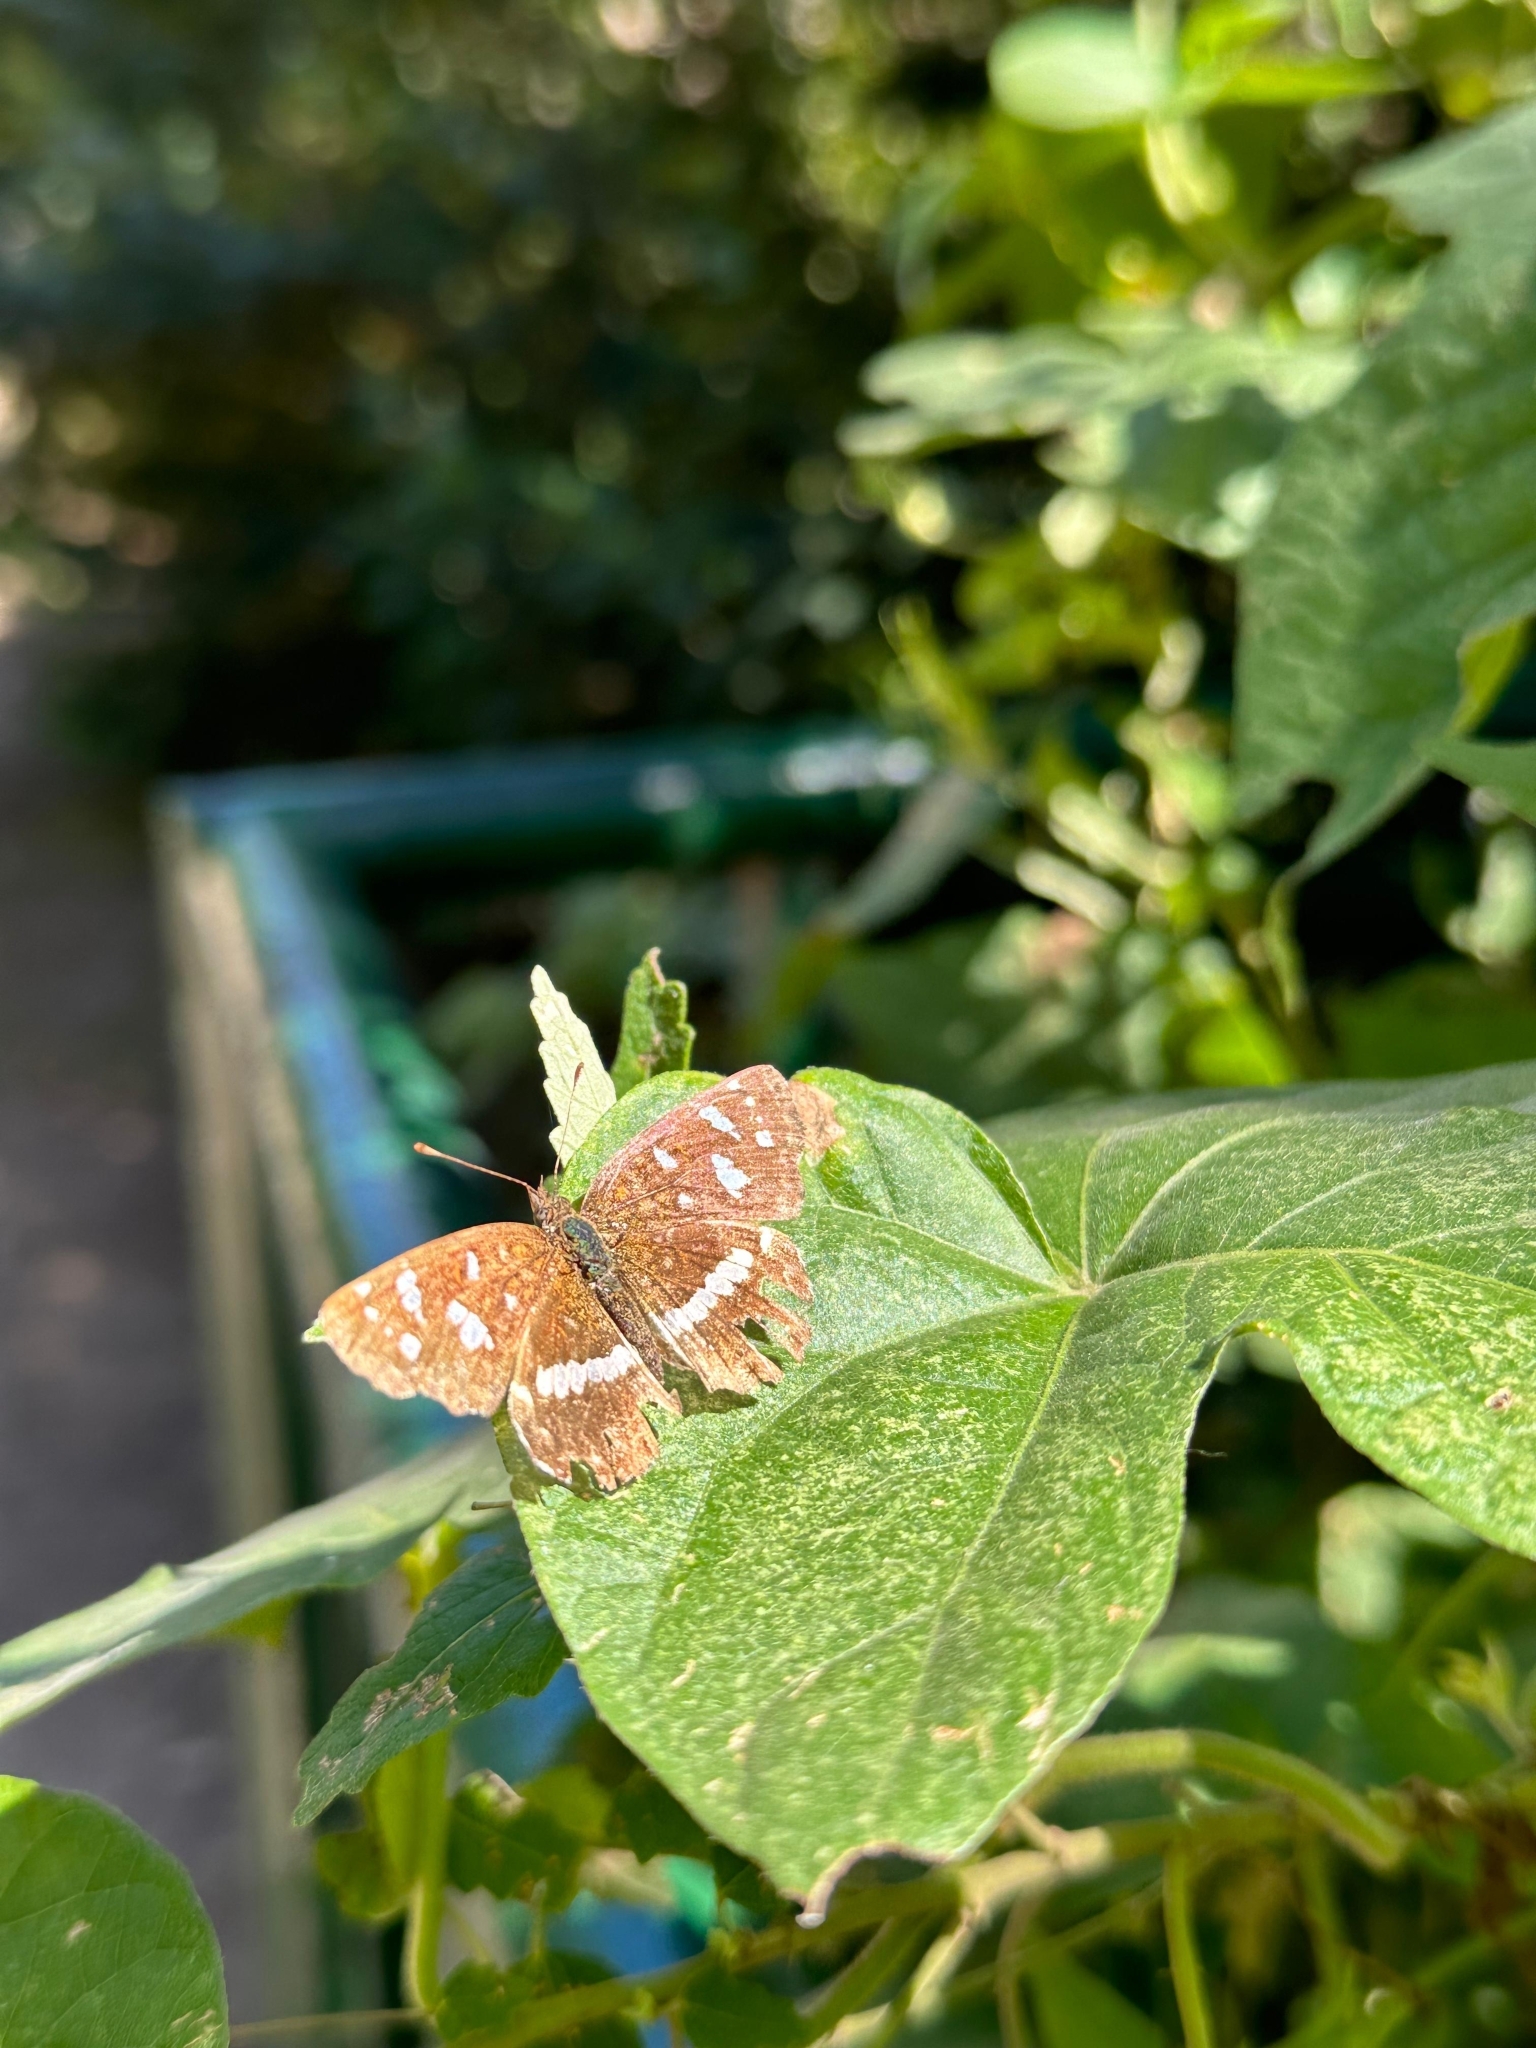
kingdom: Animalia
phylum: Arthropoda
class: Insecta
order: Lepidoptera
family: Nymphalidae
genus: Ortilia
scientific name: Ortilia ithra
